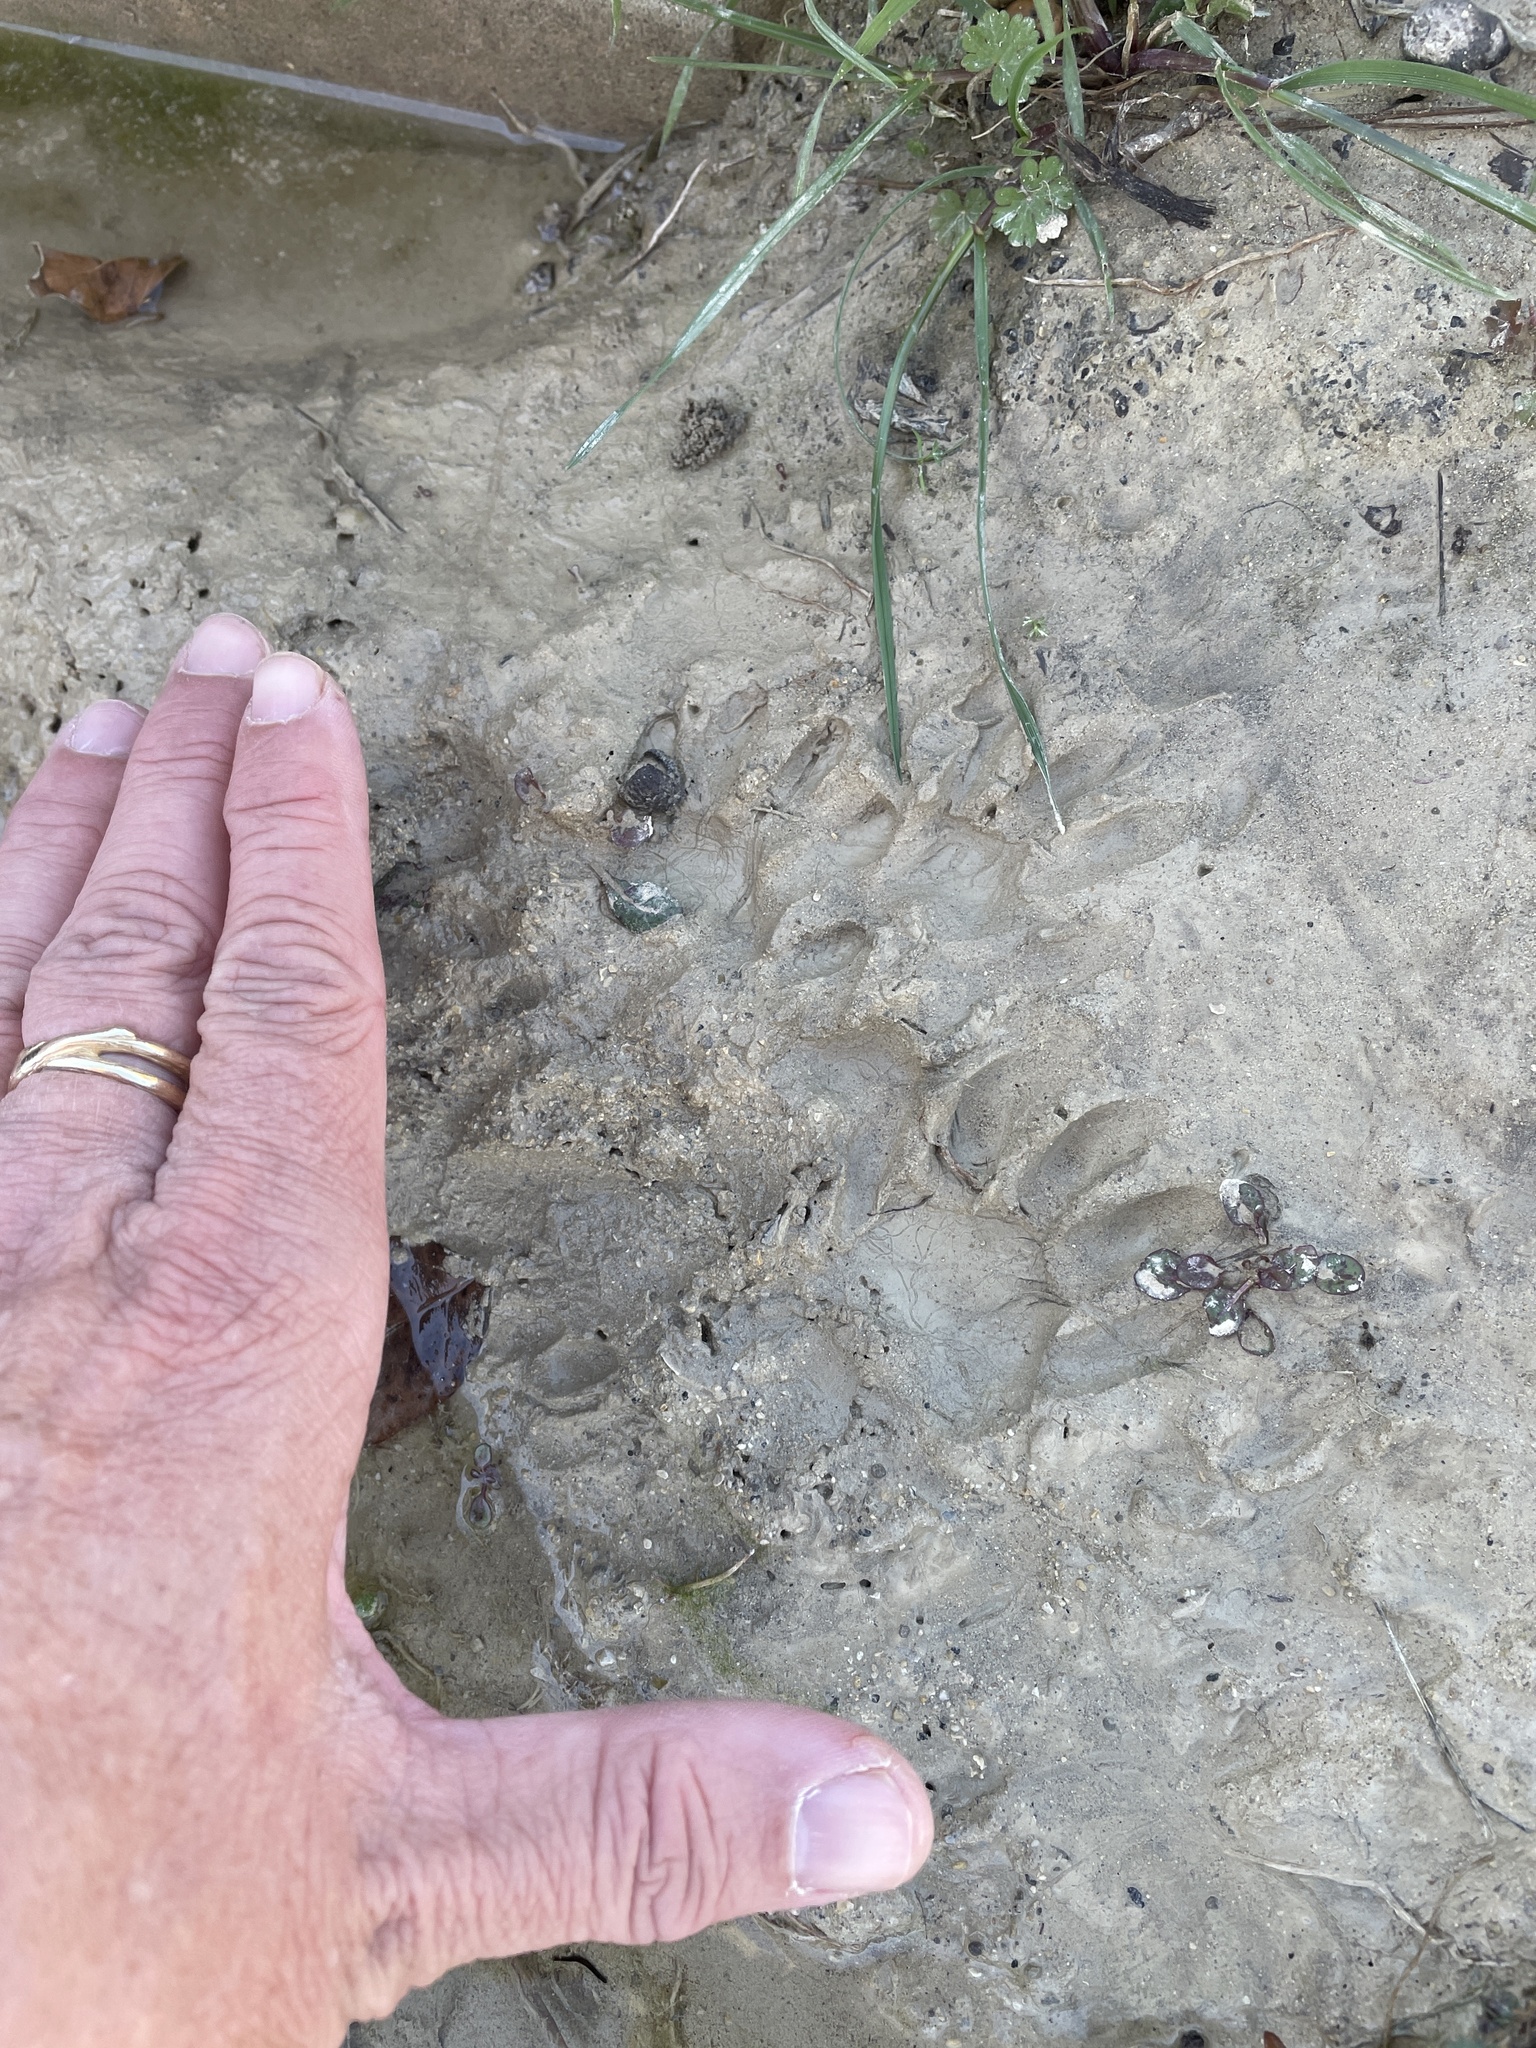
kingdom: Animalia
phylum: Chordata
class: Mammalia
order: Carnivora
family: Procyonidae
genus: Procyon
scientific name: Procyon lotor
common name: Raccoon
